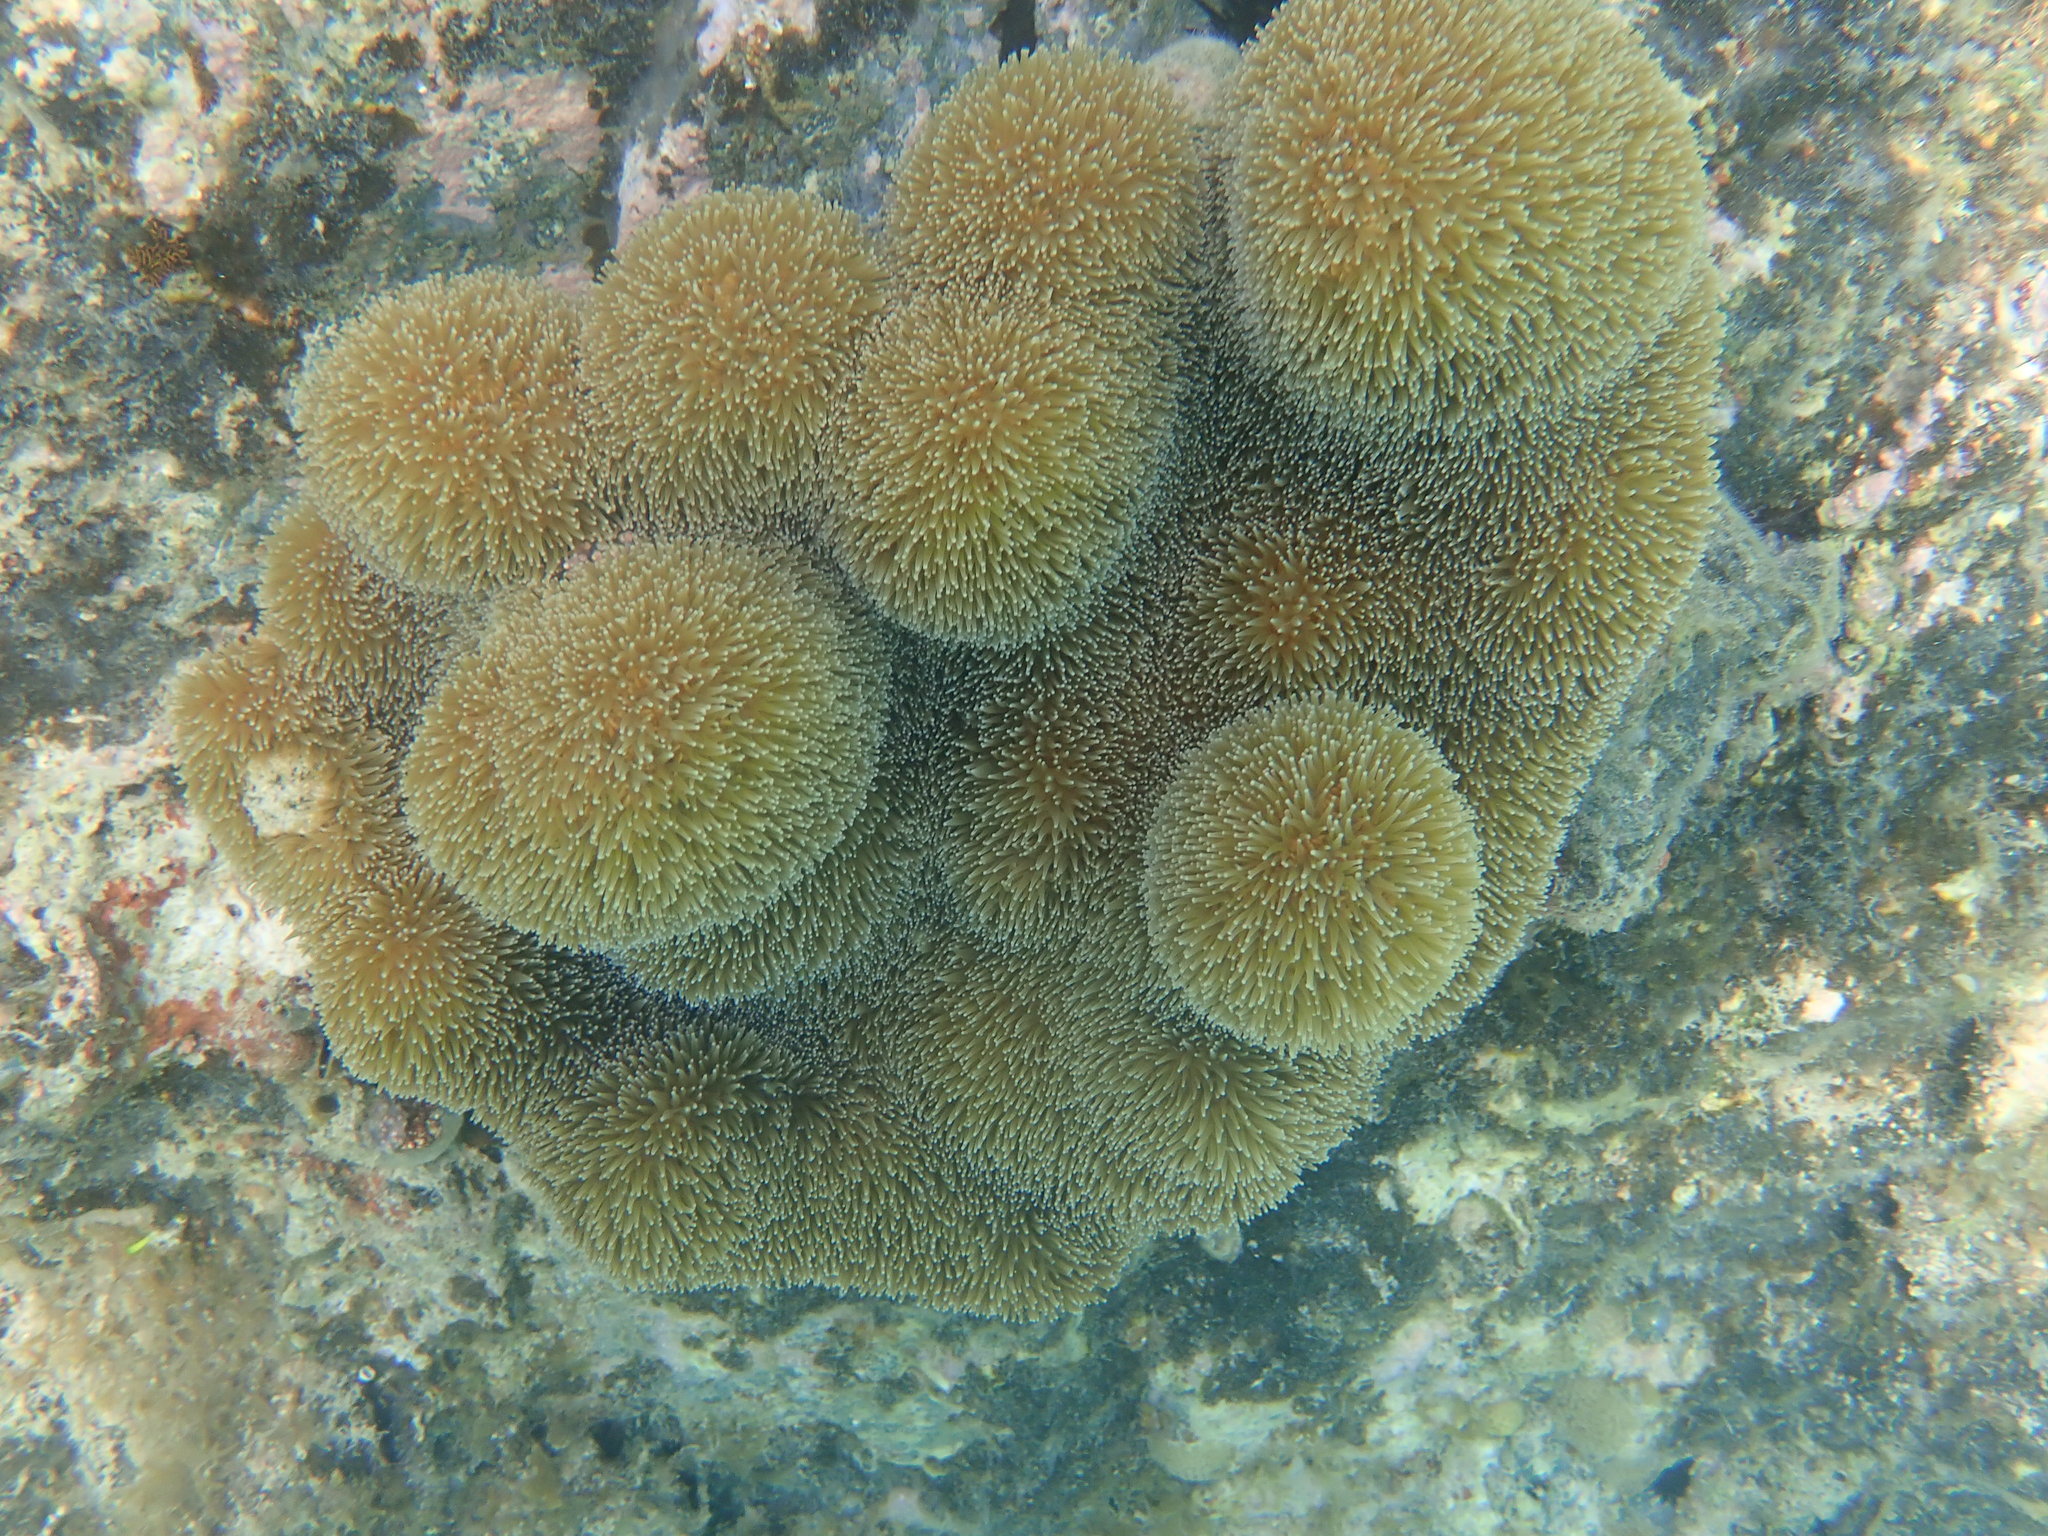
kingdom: Animalia
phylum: Cnidaria
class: Anthozoa
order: Scleractinia
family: Meandrinidae
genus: Dendrogyra
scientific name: Dendrogyra cylindrus
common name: Pillar coral
